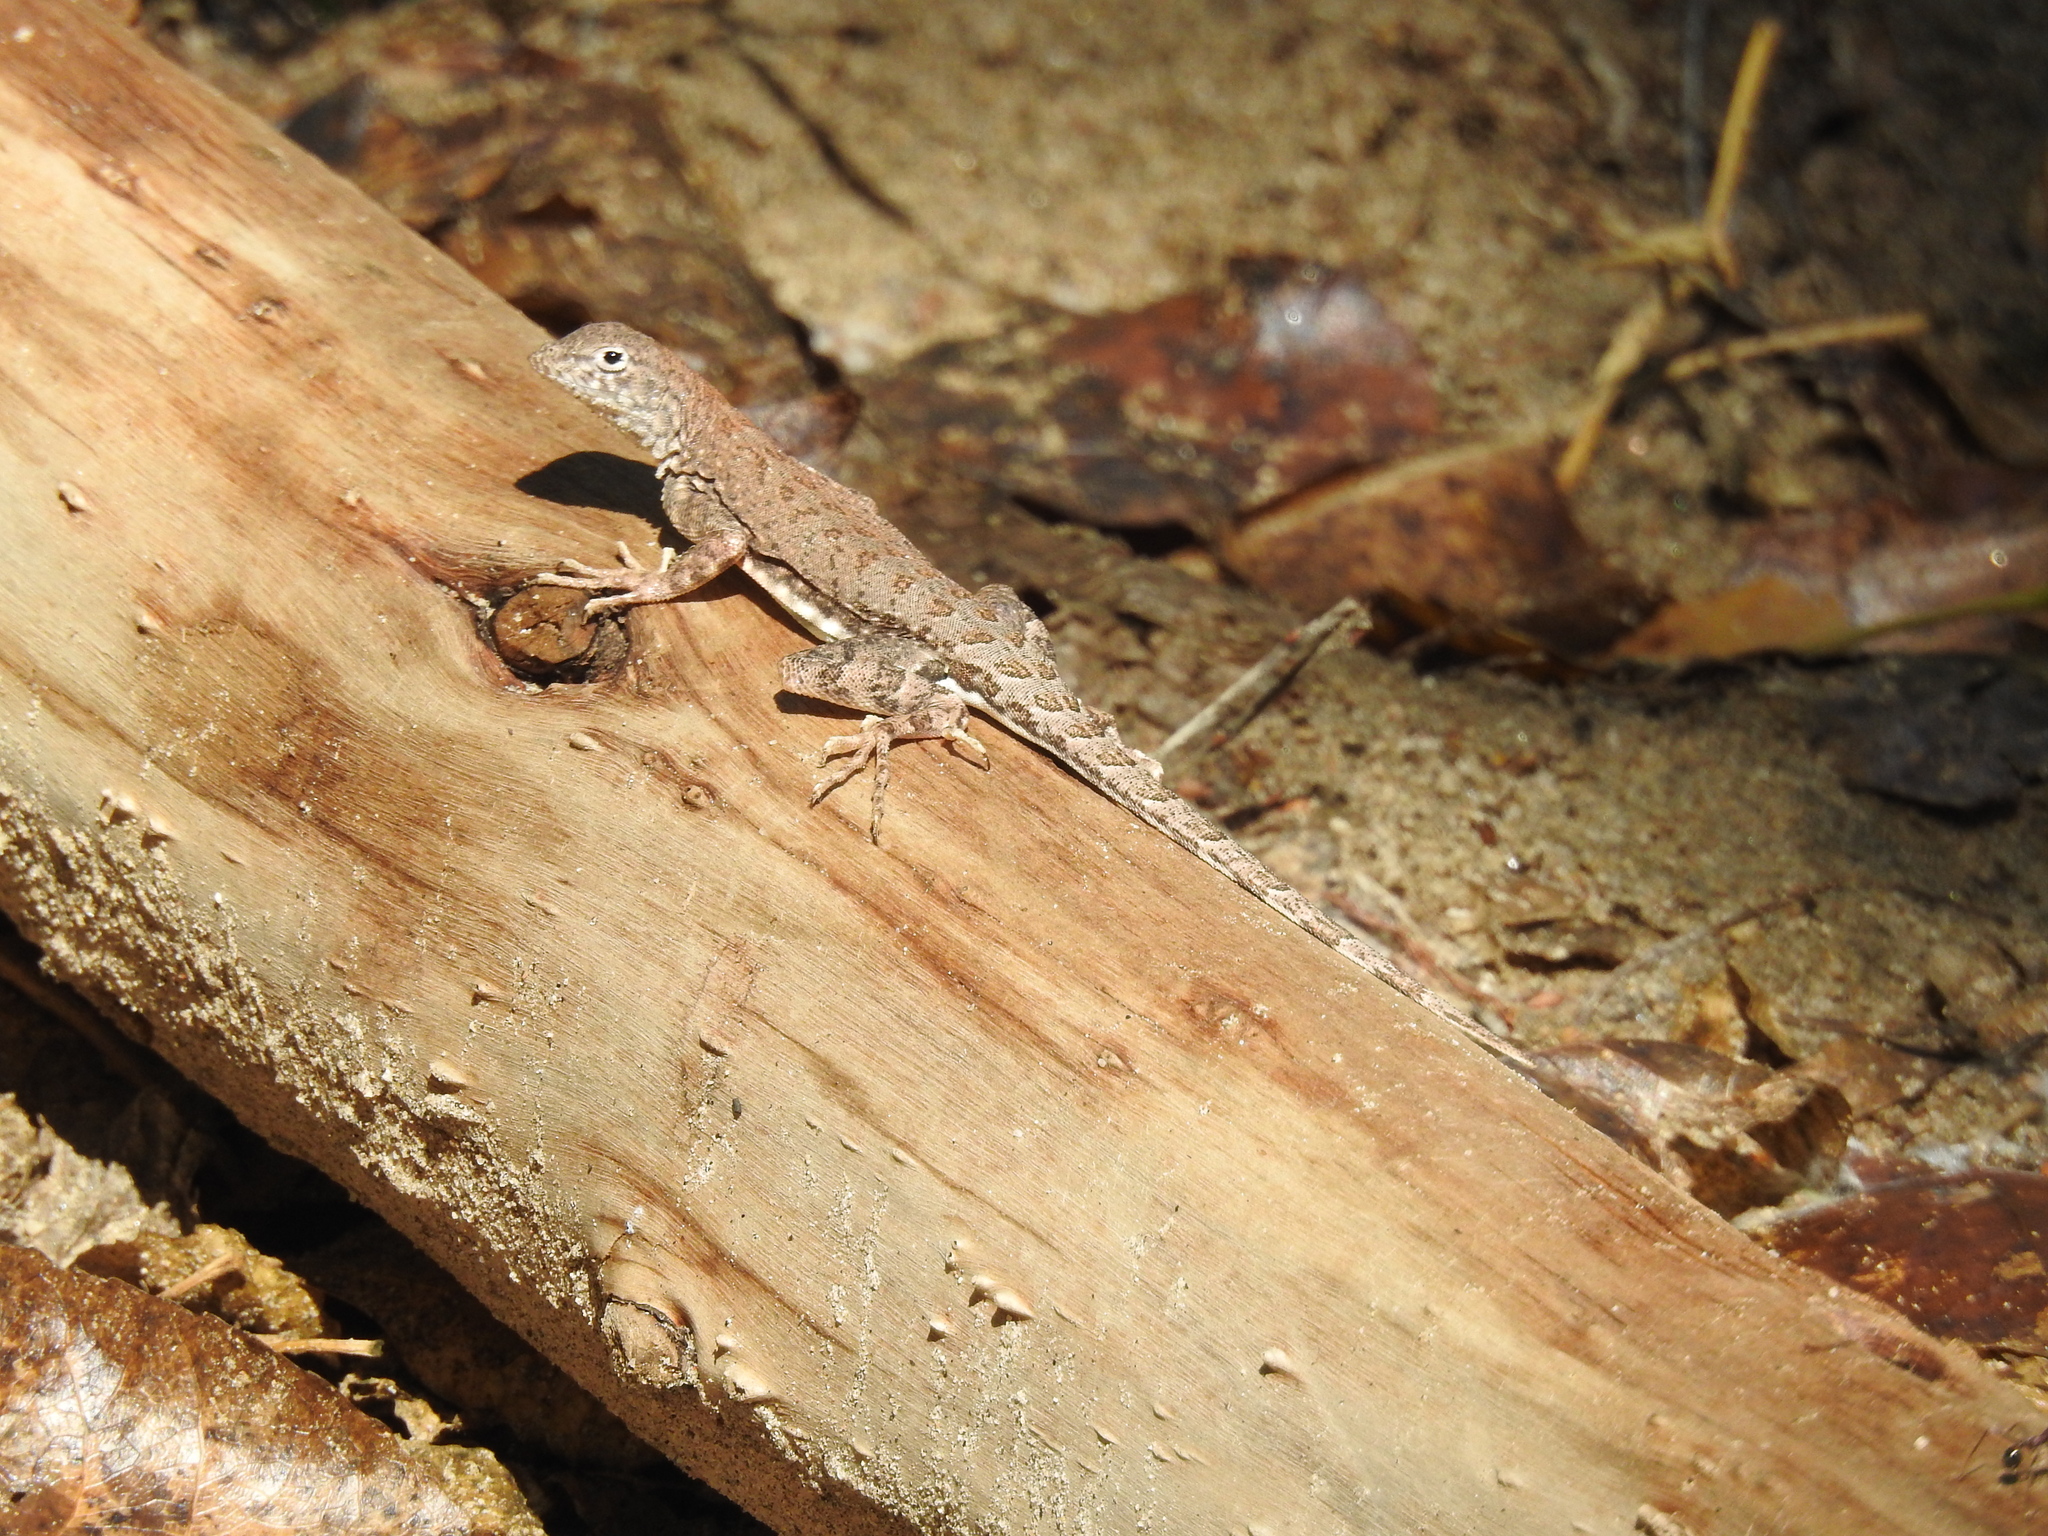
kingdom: Animalia
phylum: Chordata
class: Squamata
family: Phrynosomatidae
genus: Cophosaurus
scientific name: Cophosaurus texanus
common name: Greater earless lizard
